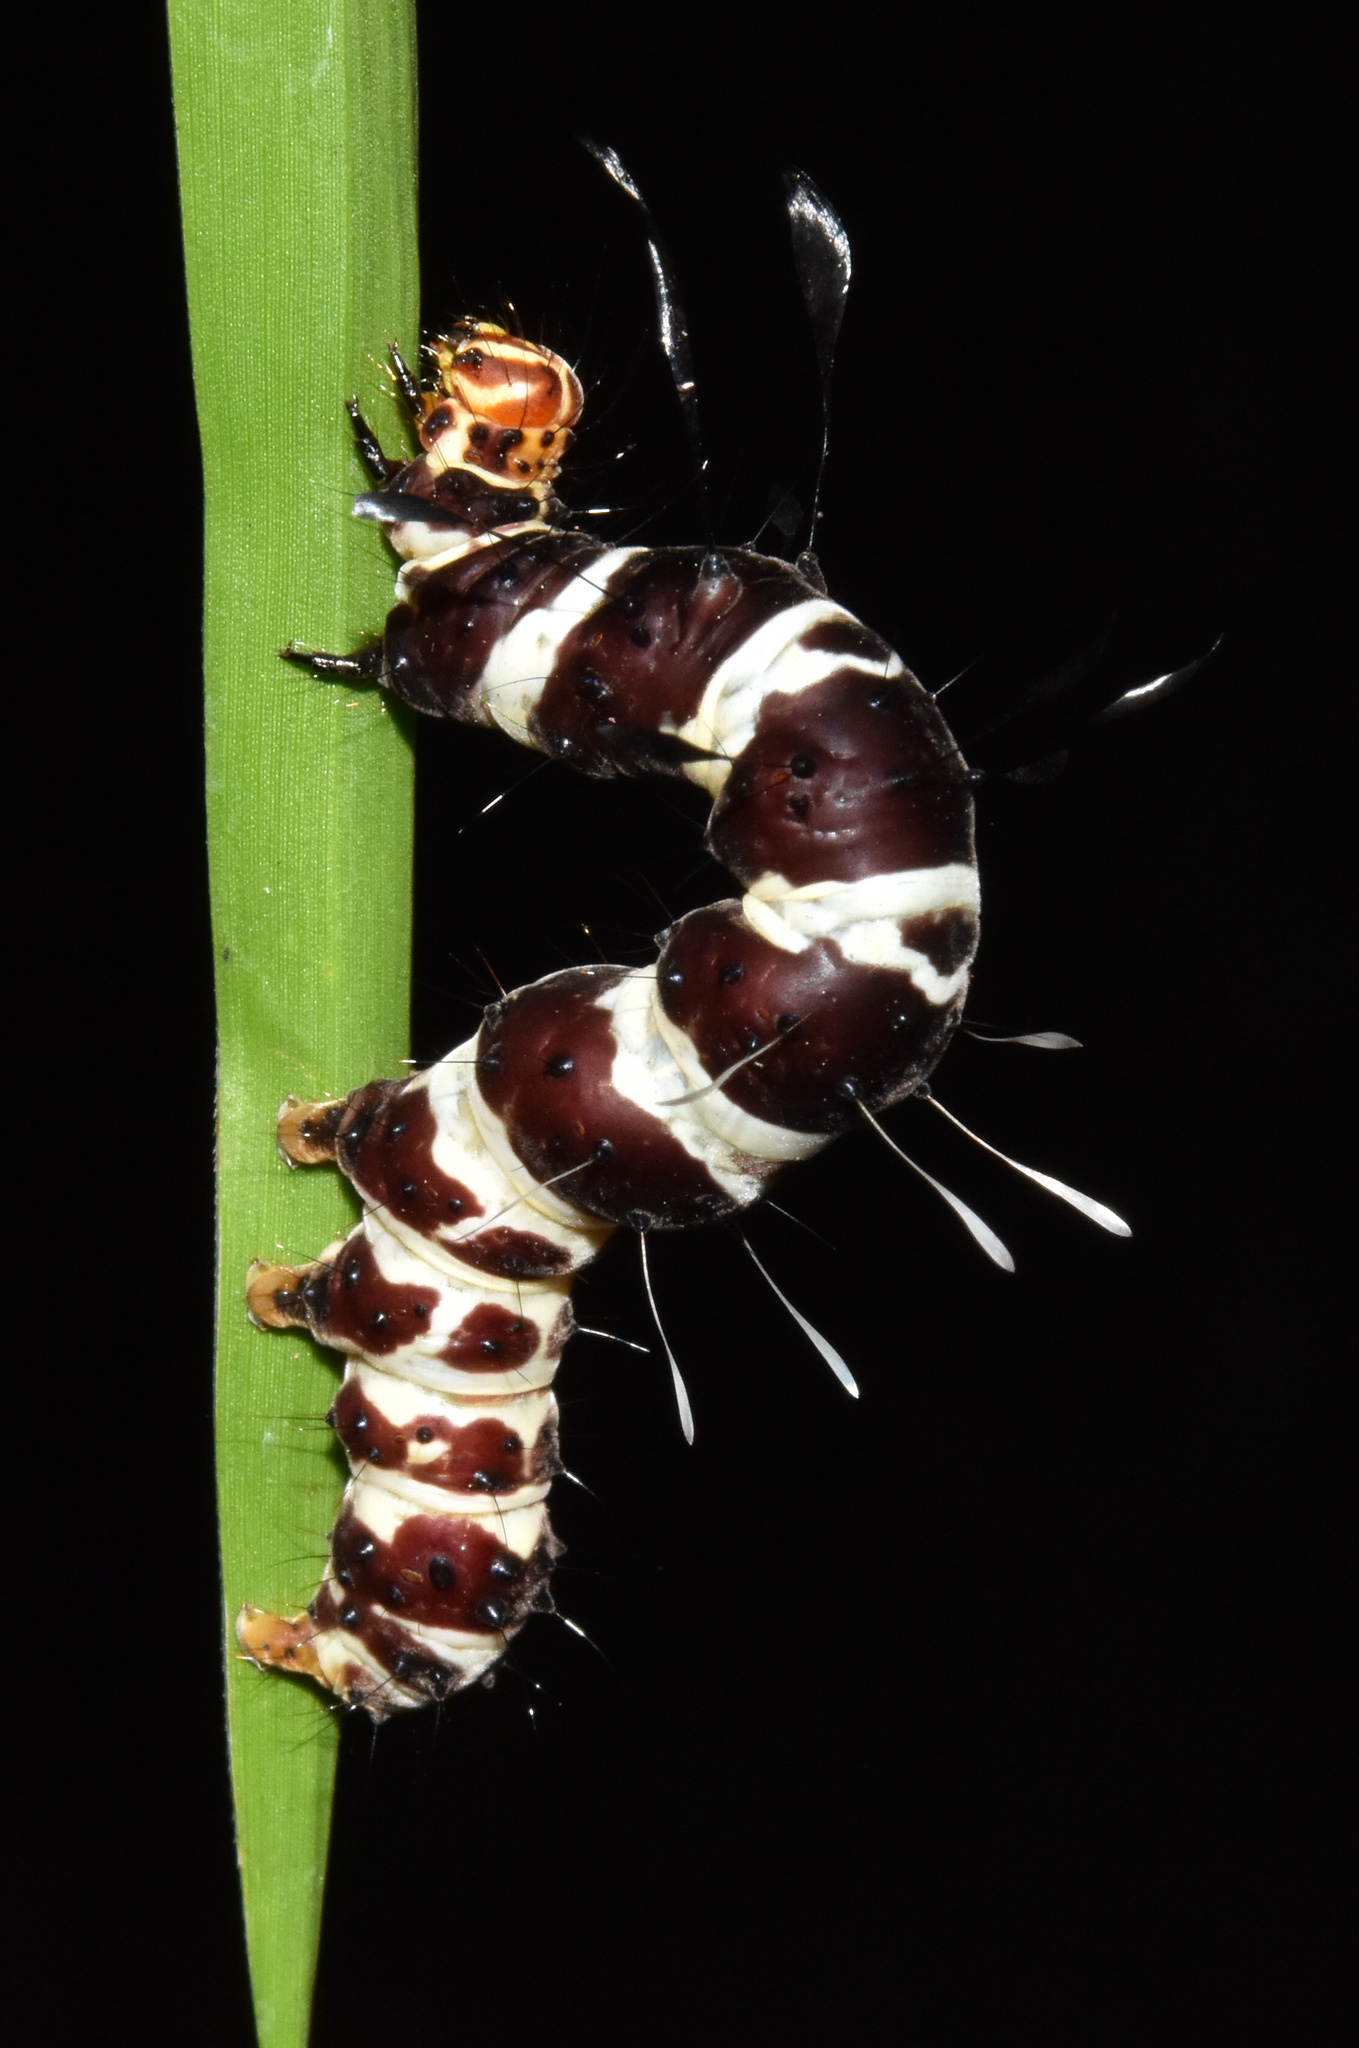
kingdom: Animalia
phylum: Arthropoda
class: Insecta
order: Lepidoptera
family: Erebidae
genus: Rhanidophora
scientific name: Rhanidophora cinctigutta
